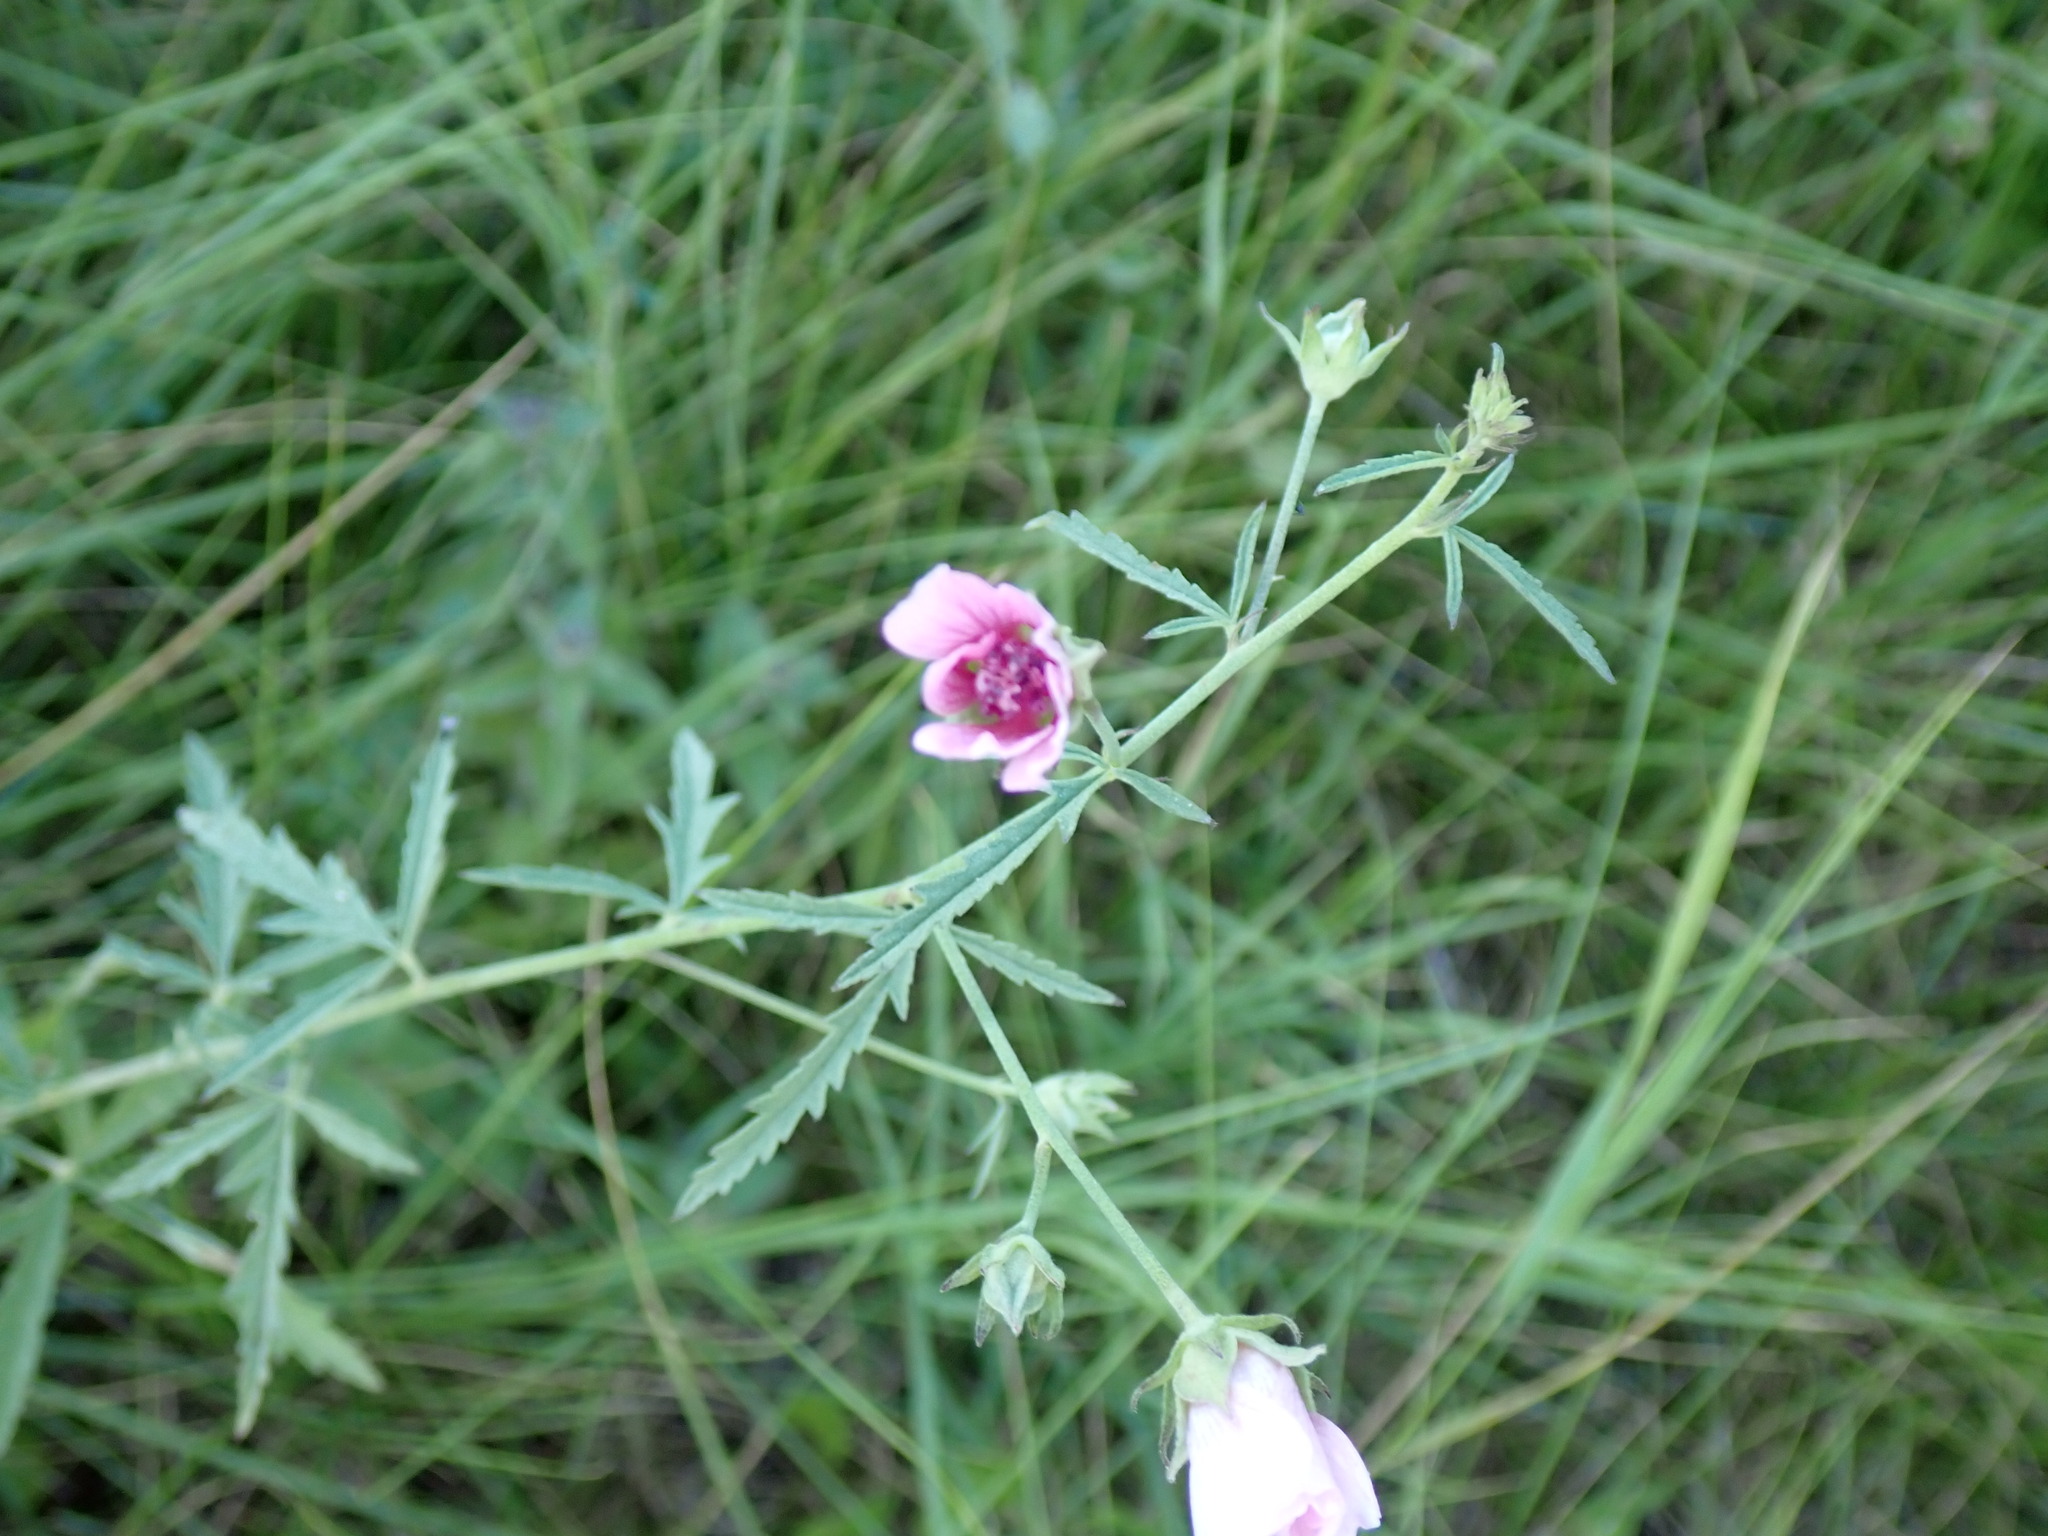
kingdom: Plantae
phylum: Tracheophyta
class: Magnoliopsida
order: Malvales
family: Malvaceae
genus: Althaea
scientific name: Althaea cannabina
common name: Palm-leaf marshmallow
